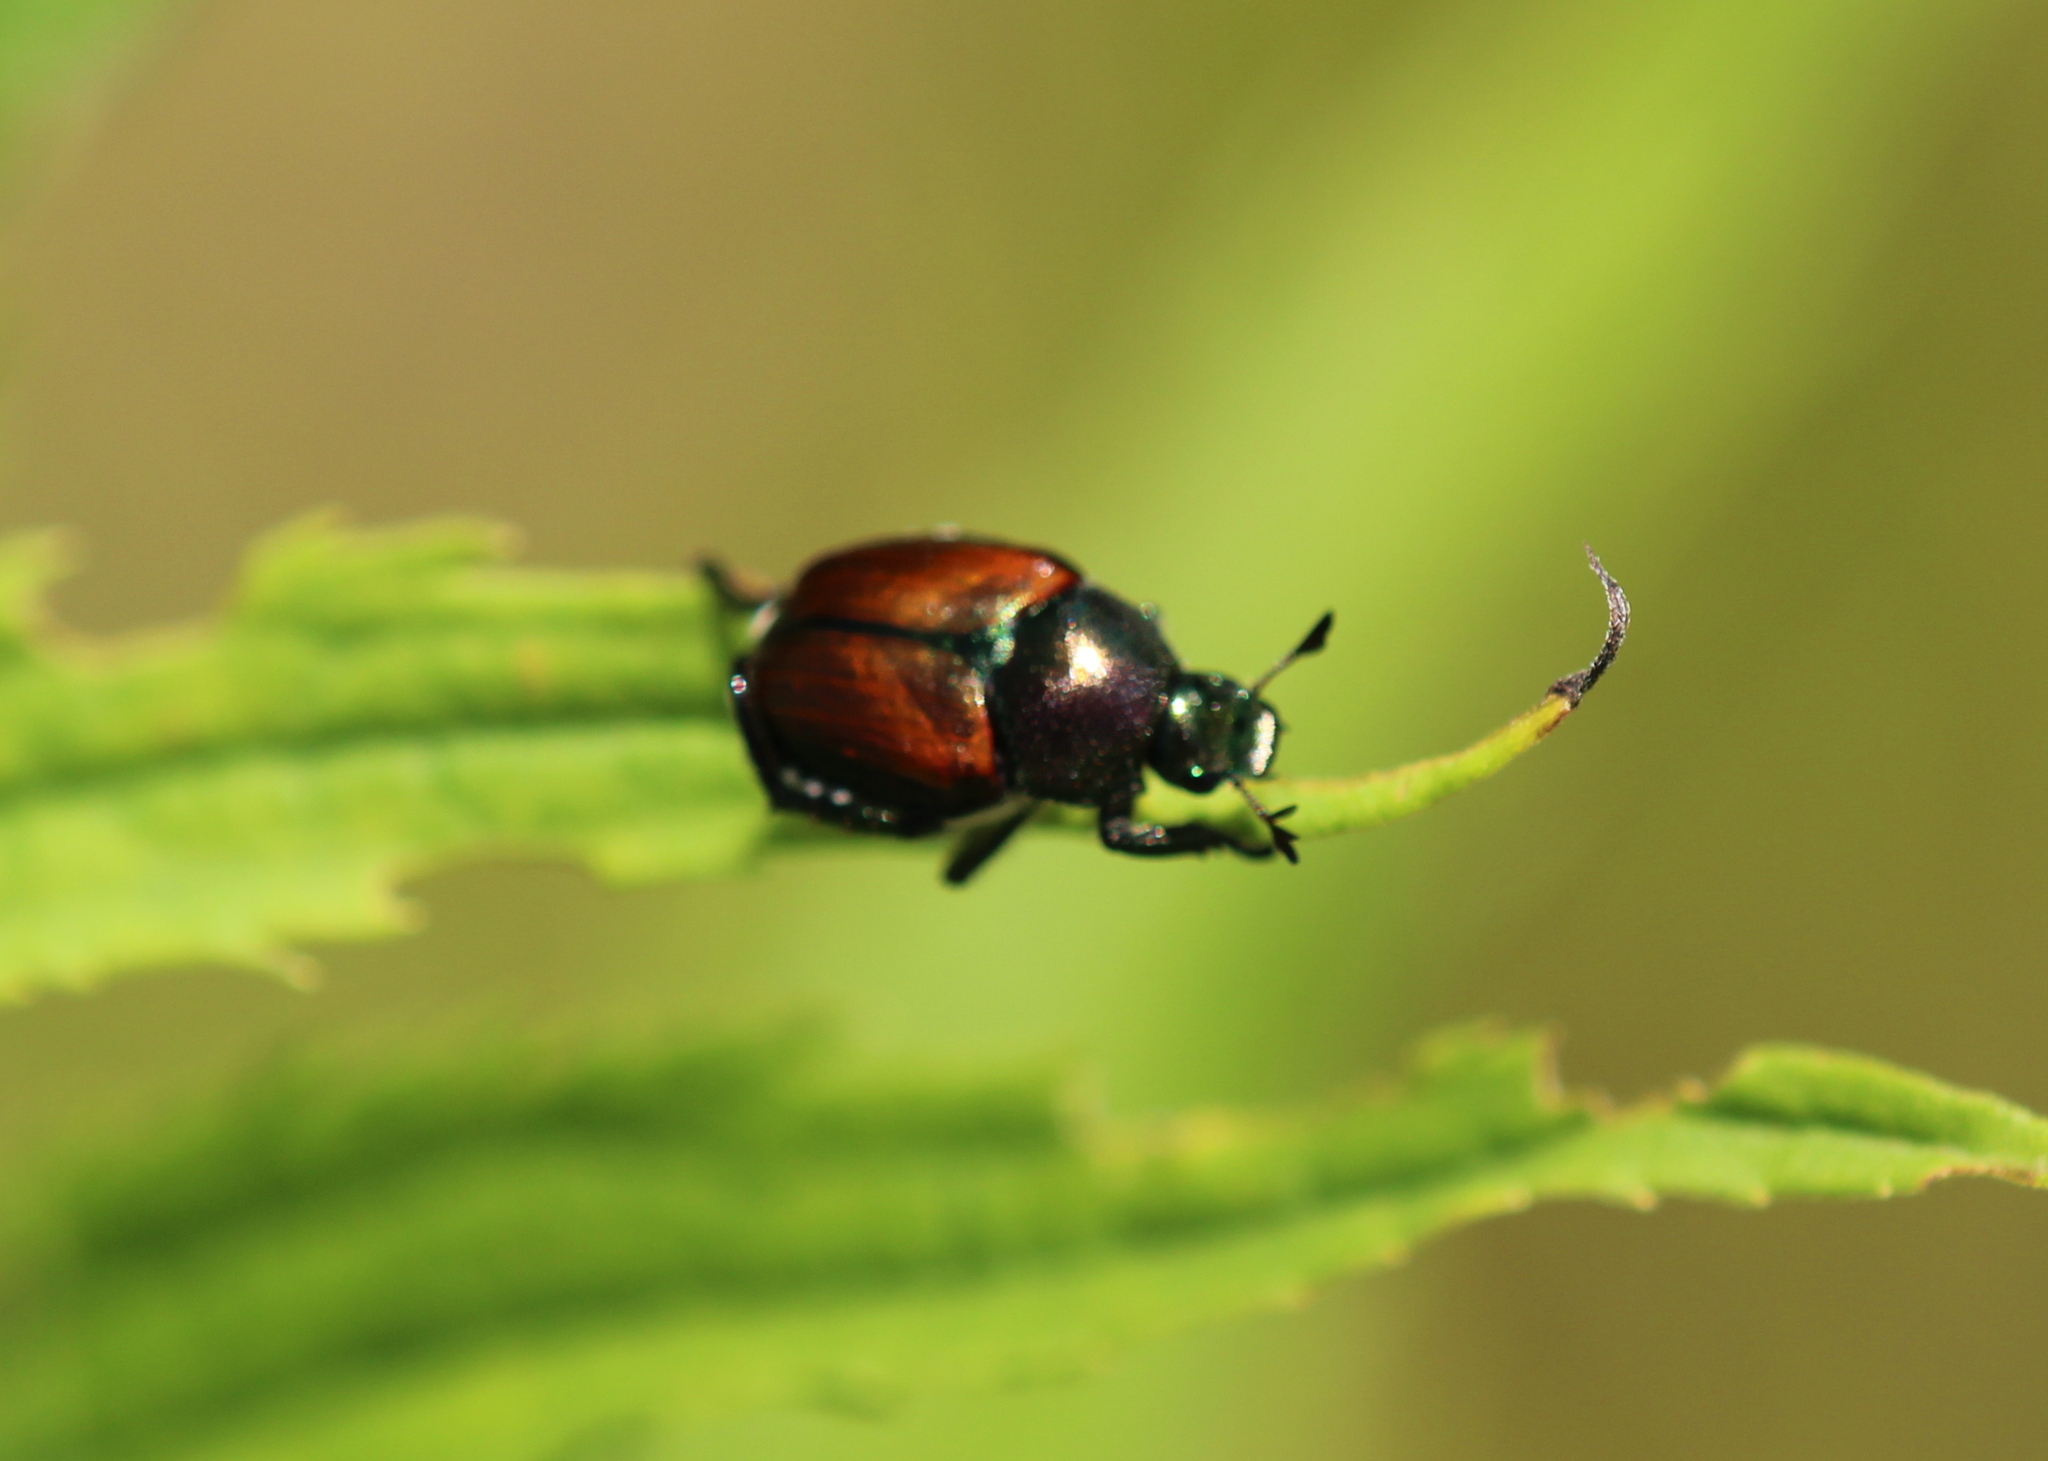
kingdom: Animalia
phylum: Arthropoda
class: Insecta
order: Coleoptera
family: Scarabaeidae
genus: Popillia
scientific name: Popillia japonica
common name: Japanese beetle
